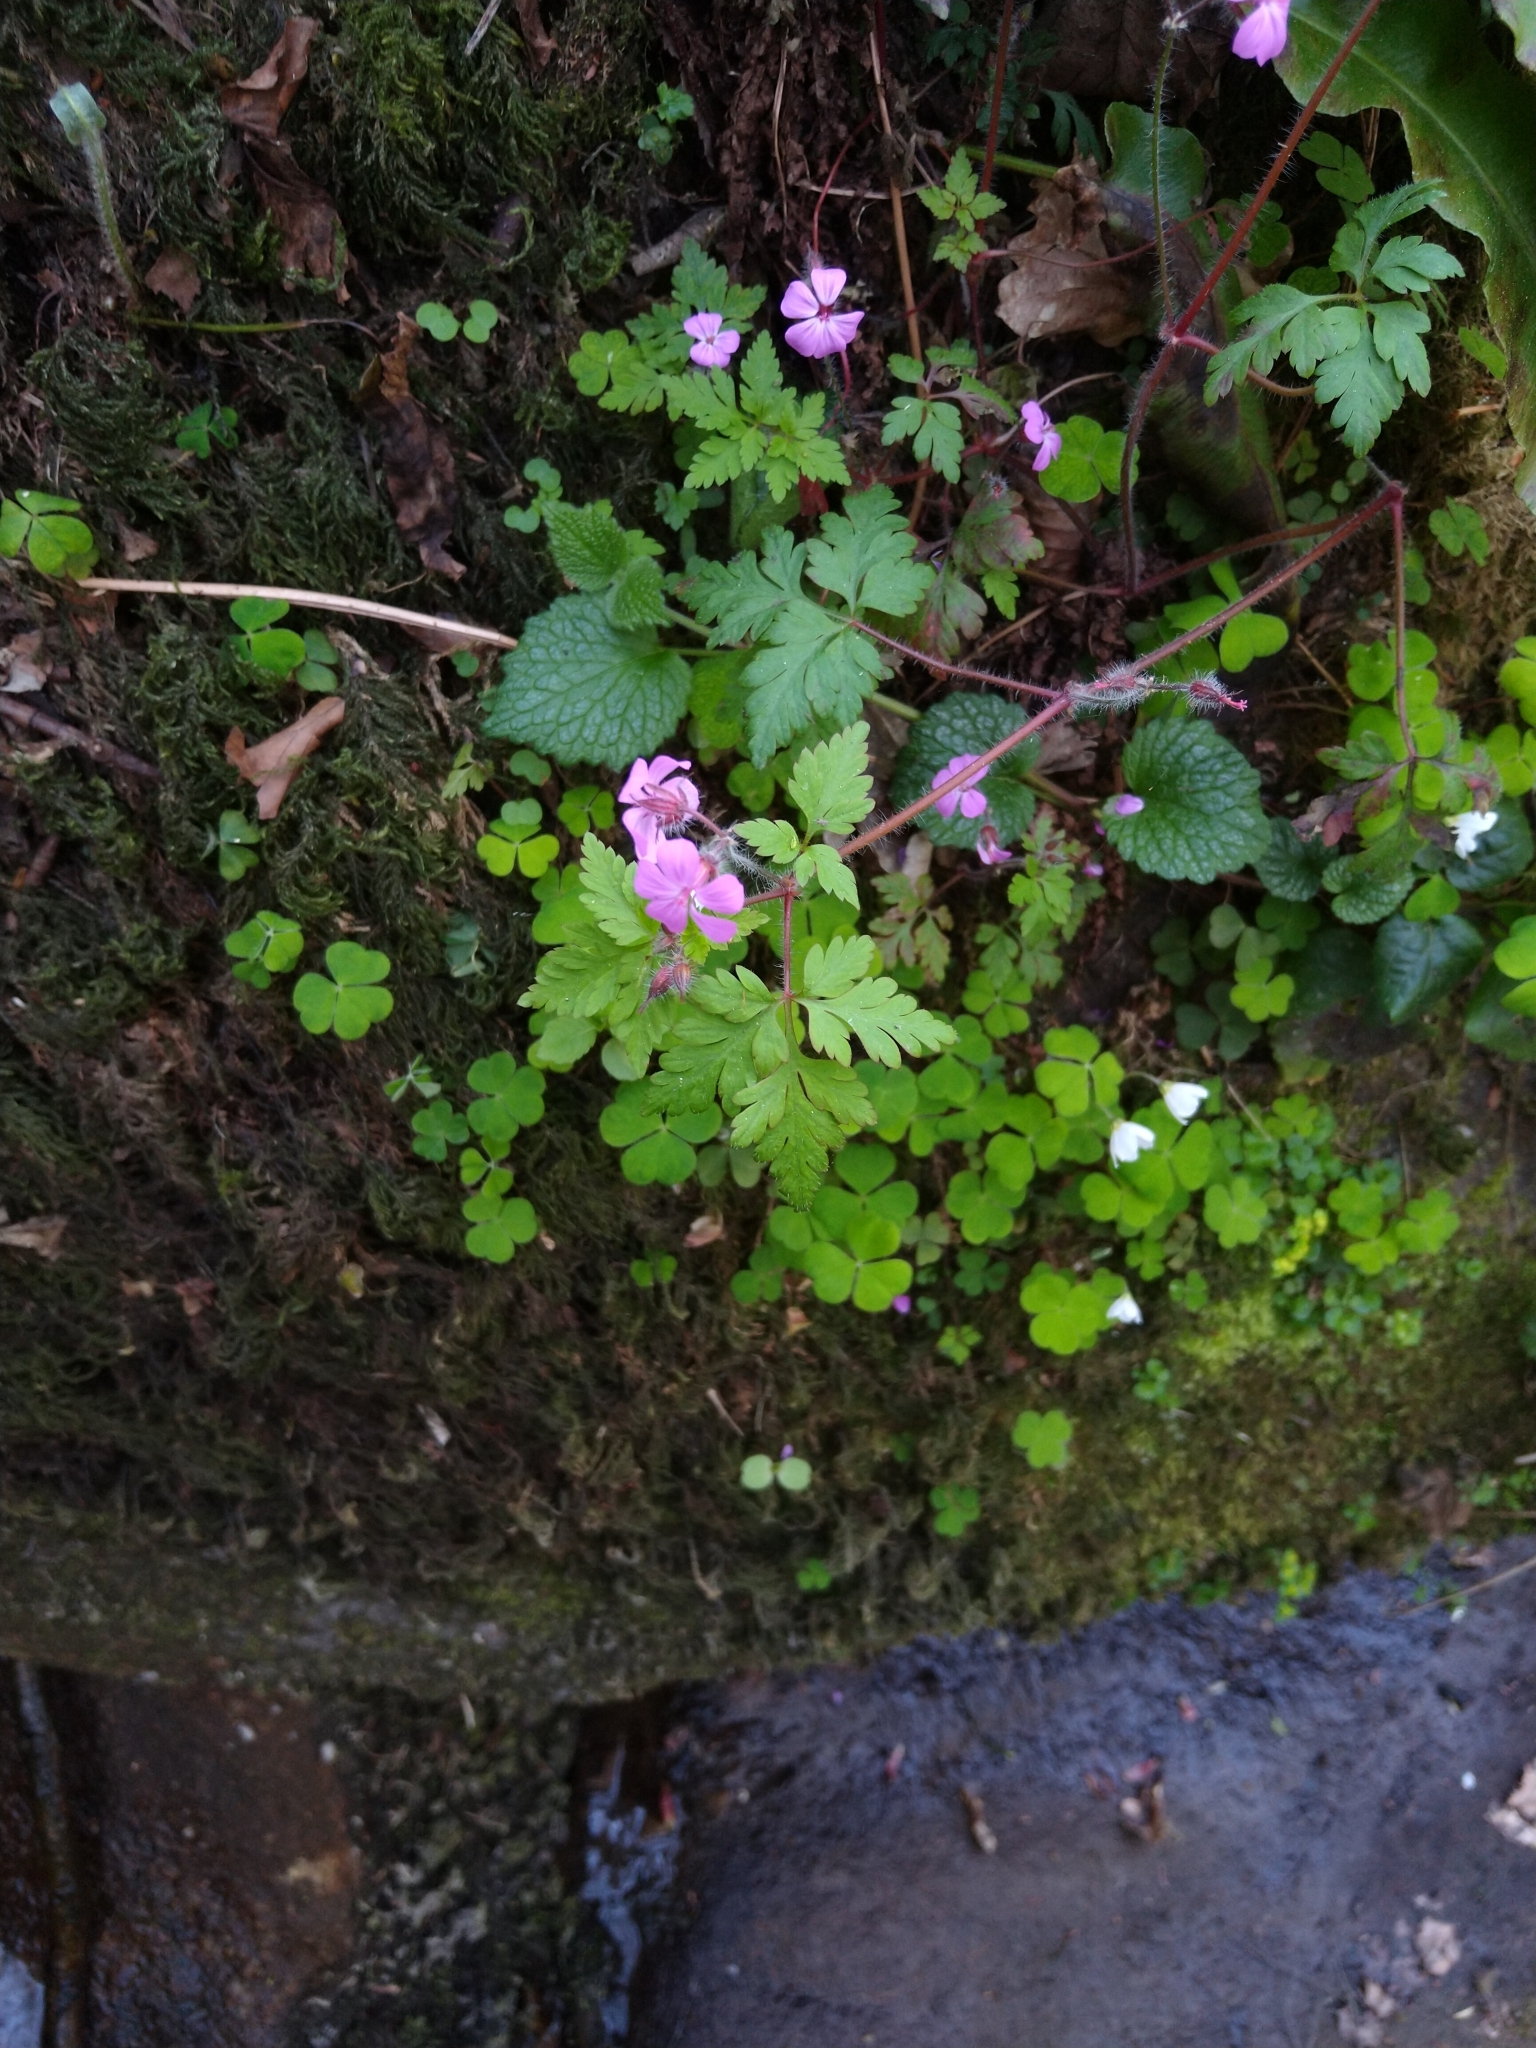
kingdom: Plantae
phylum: Tracheophyta
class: Magnoliopsida
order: Geraniales
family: Geraniaceae
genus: Geranium
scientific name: Geranium robertianum
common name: Herb-robert
